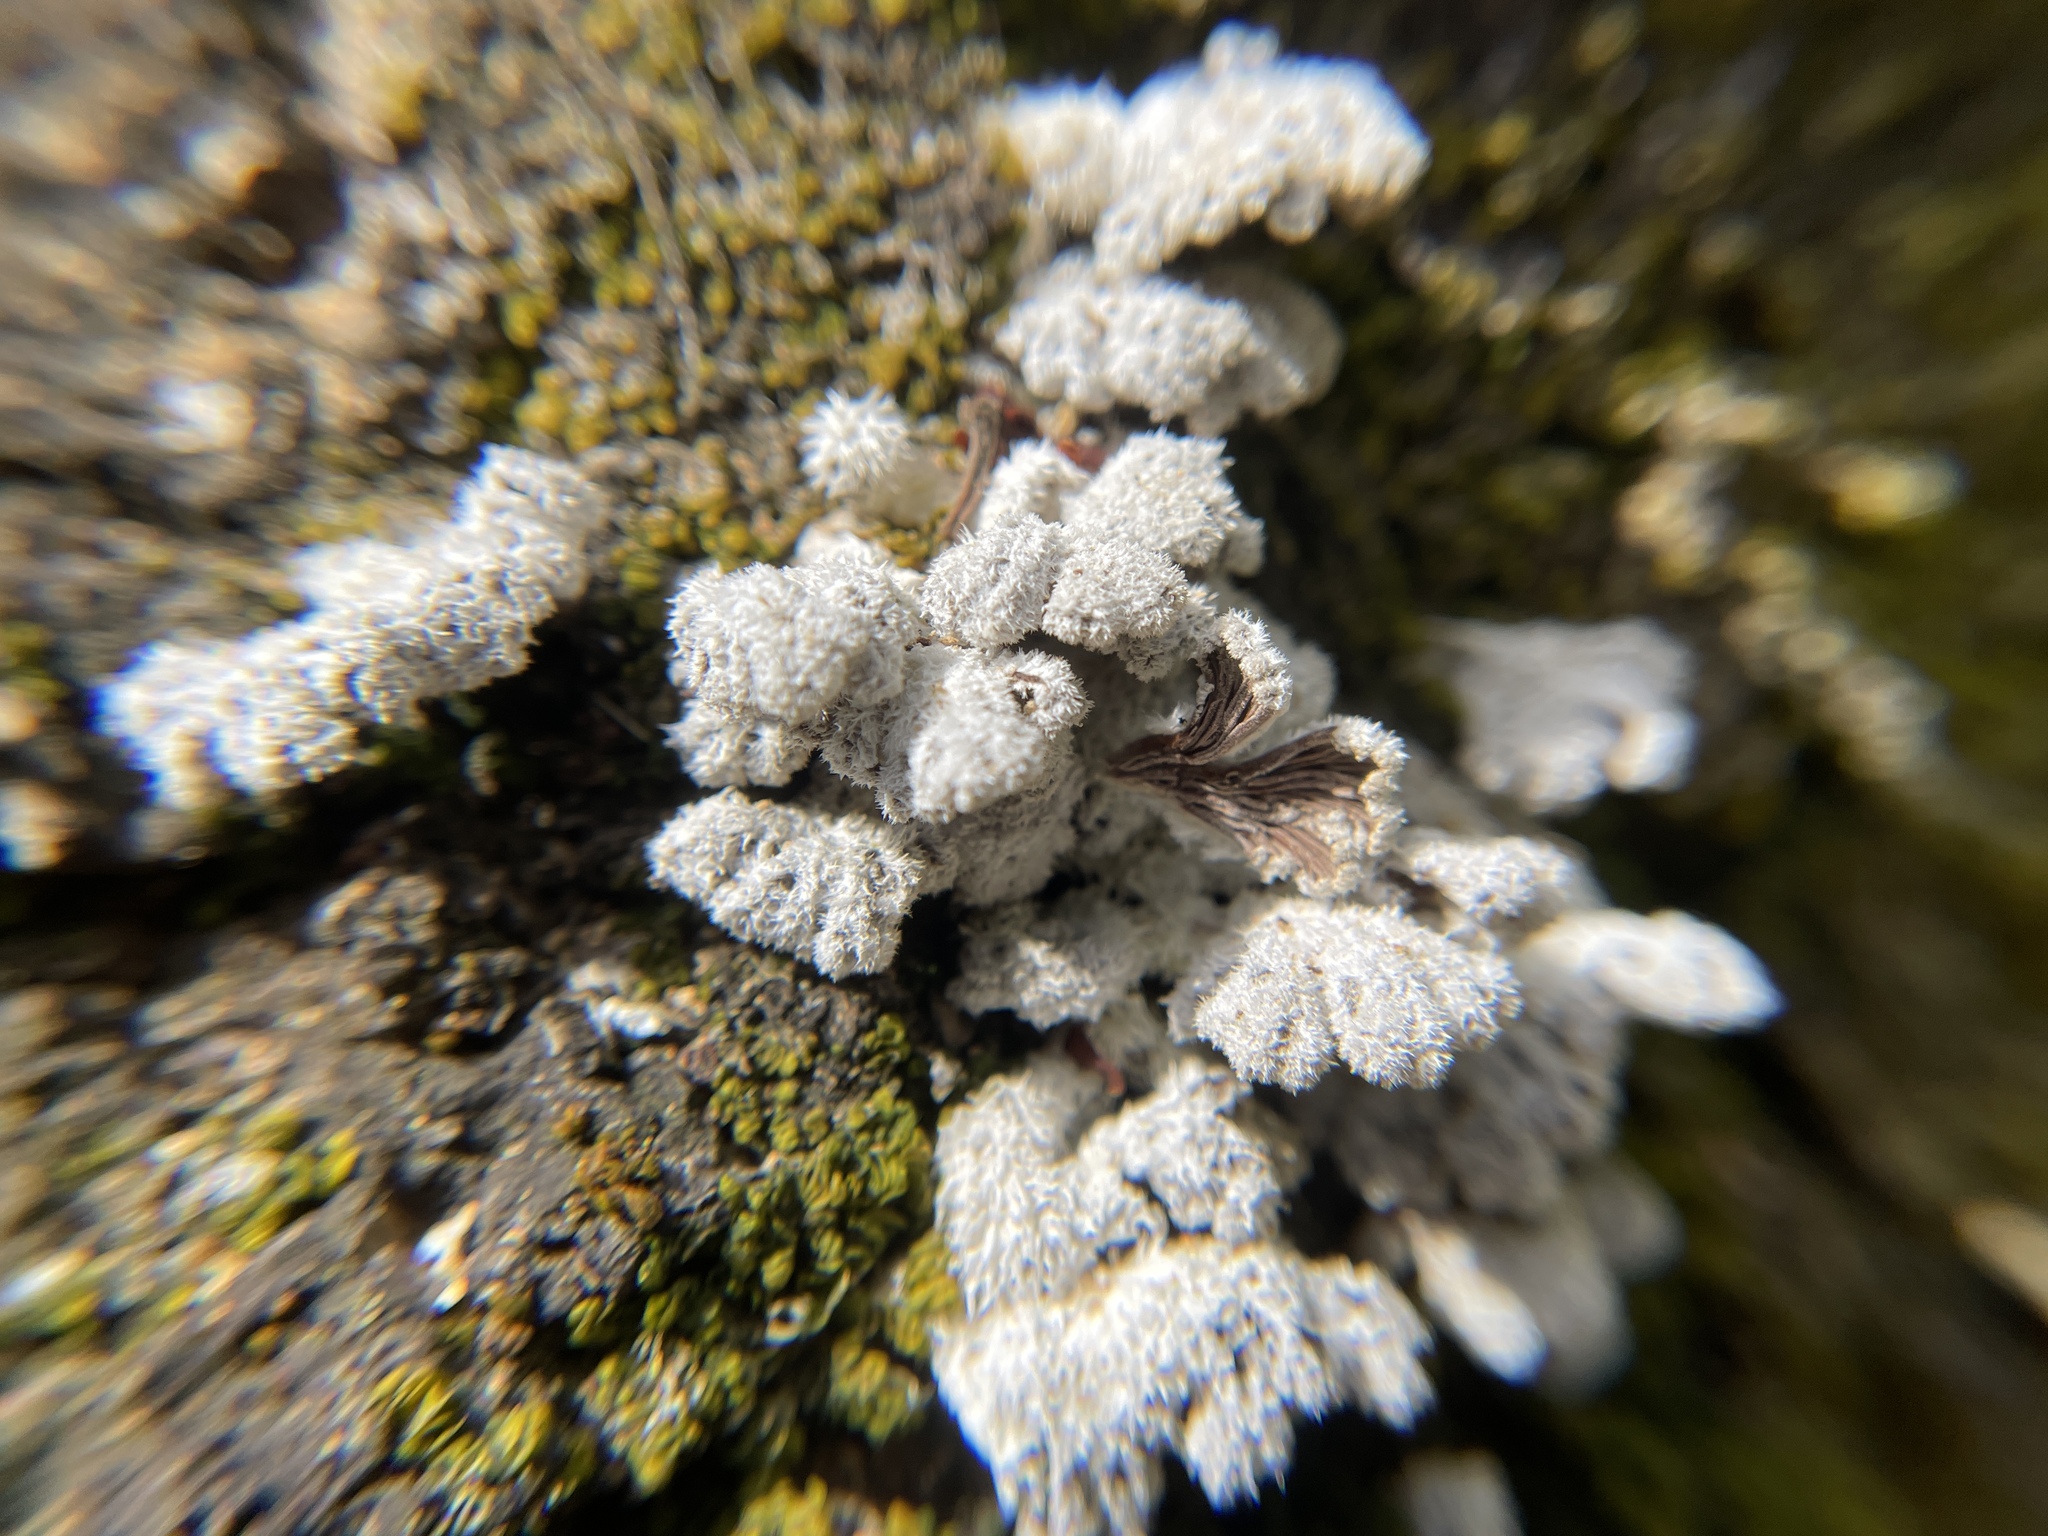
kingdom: Fungi
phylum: Basidiomycota
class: Agaricomycetes
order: Agaricales
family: Schizophyllaceae
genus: Schizophyllum
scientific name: Schizophyllum commune
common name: Common porecrust
